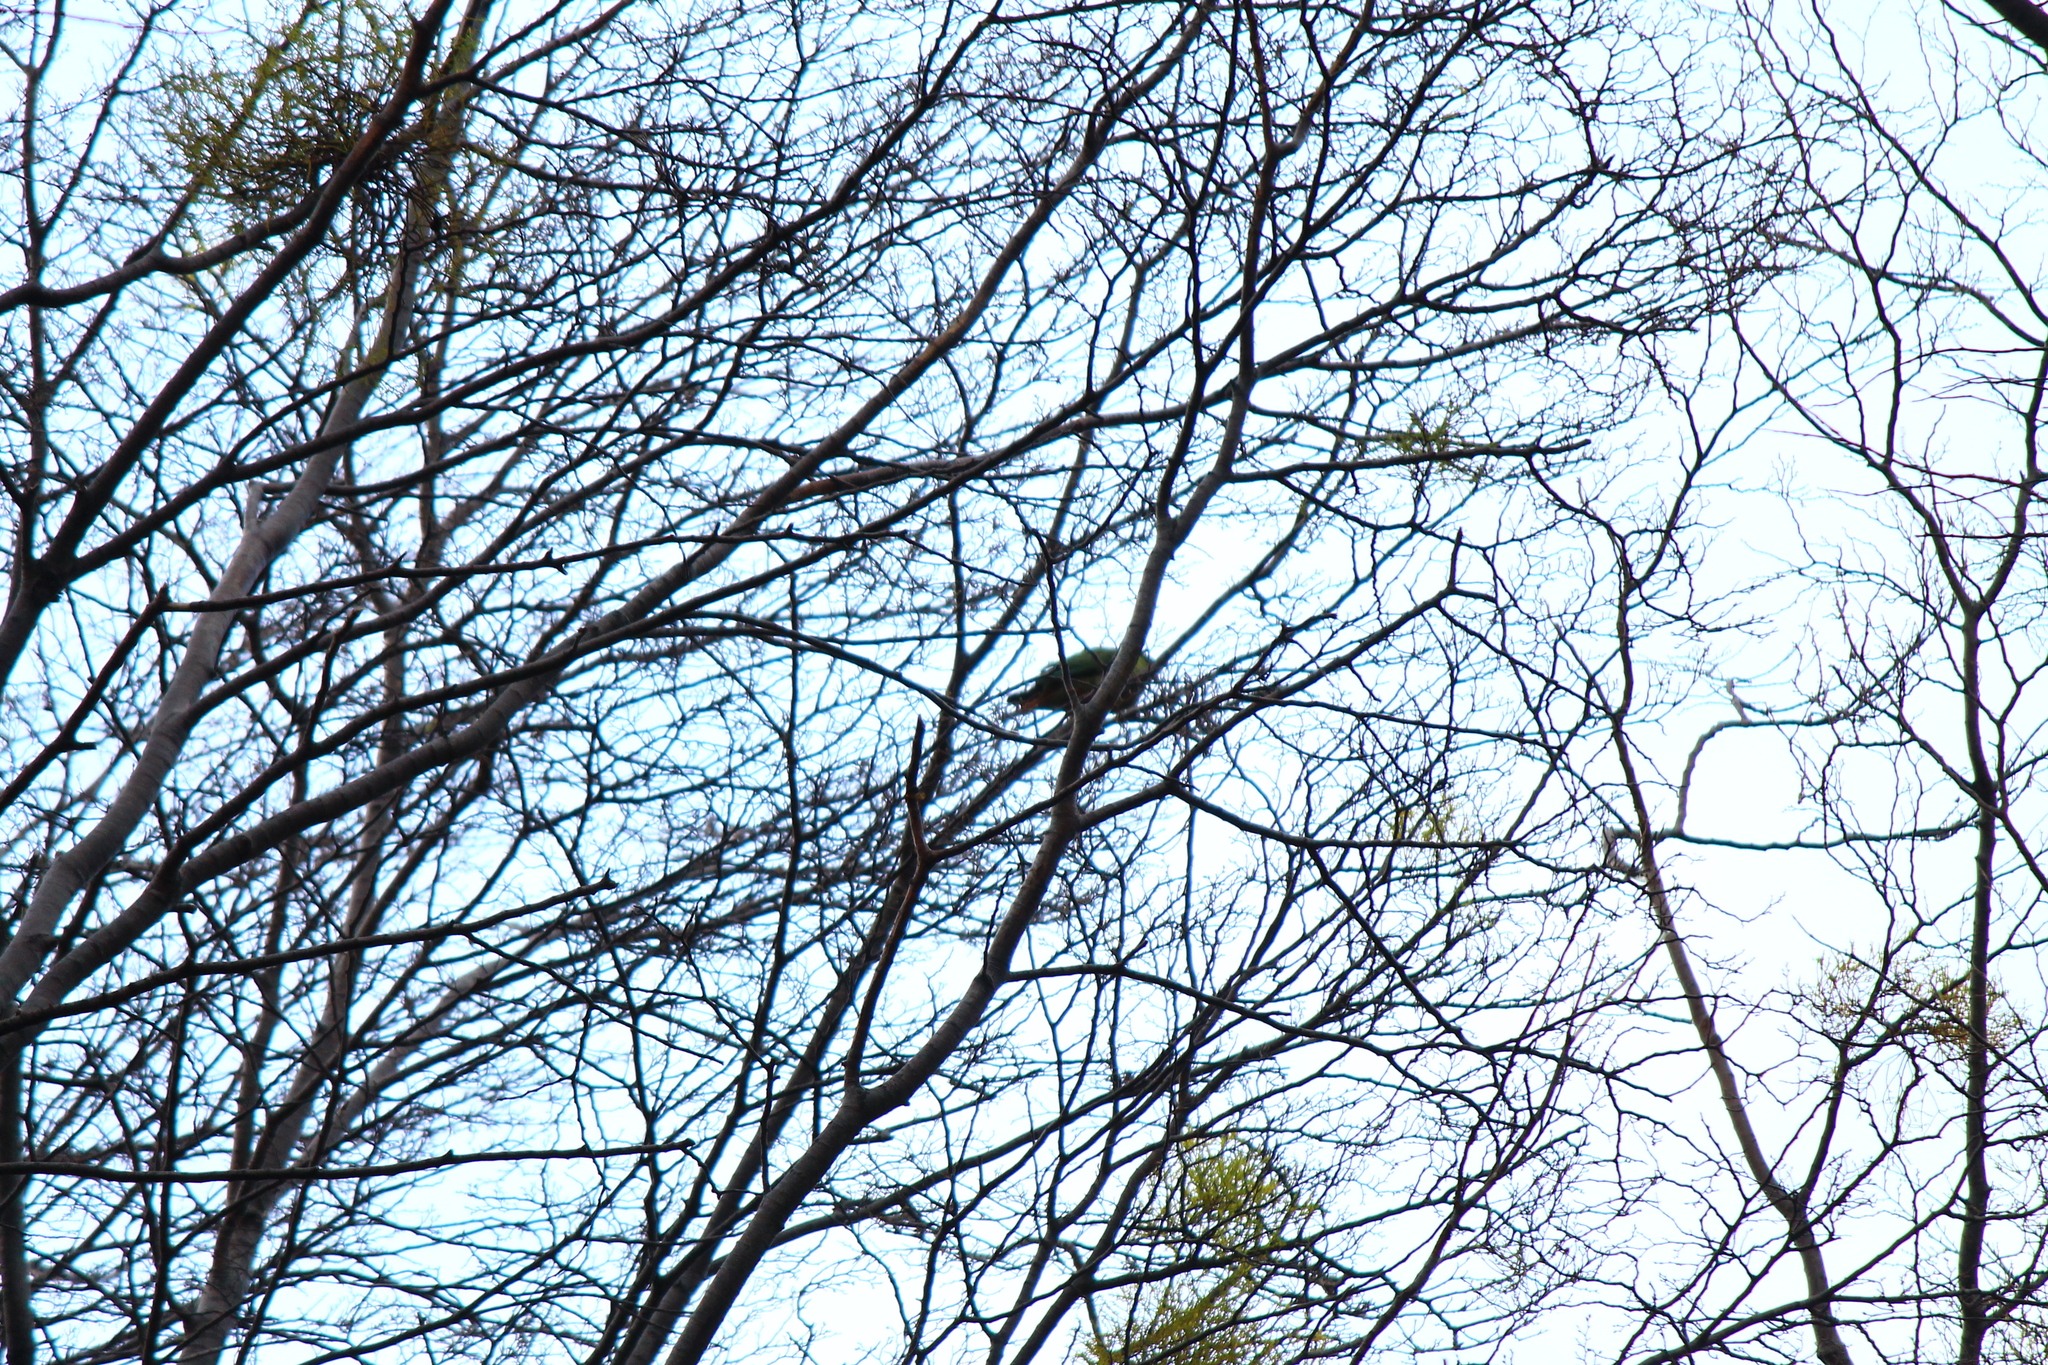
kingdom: Animalia
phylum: Chordata
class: Aves
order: Psittaciformes
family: Psittacidae
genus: Enicognathus
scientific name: Enicognathus ferrugineus
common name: Austral parakeet
